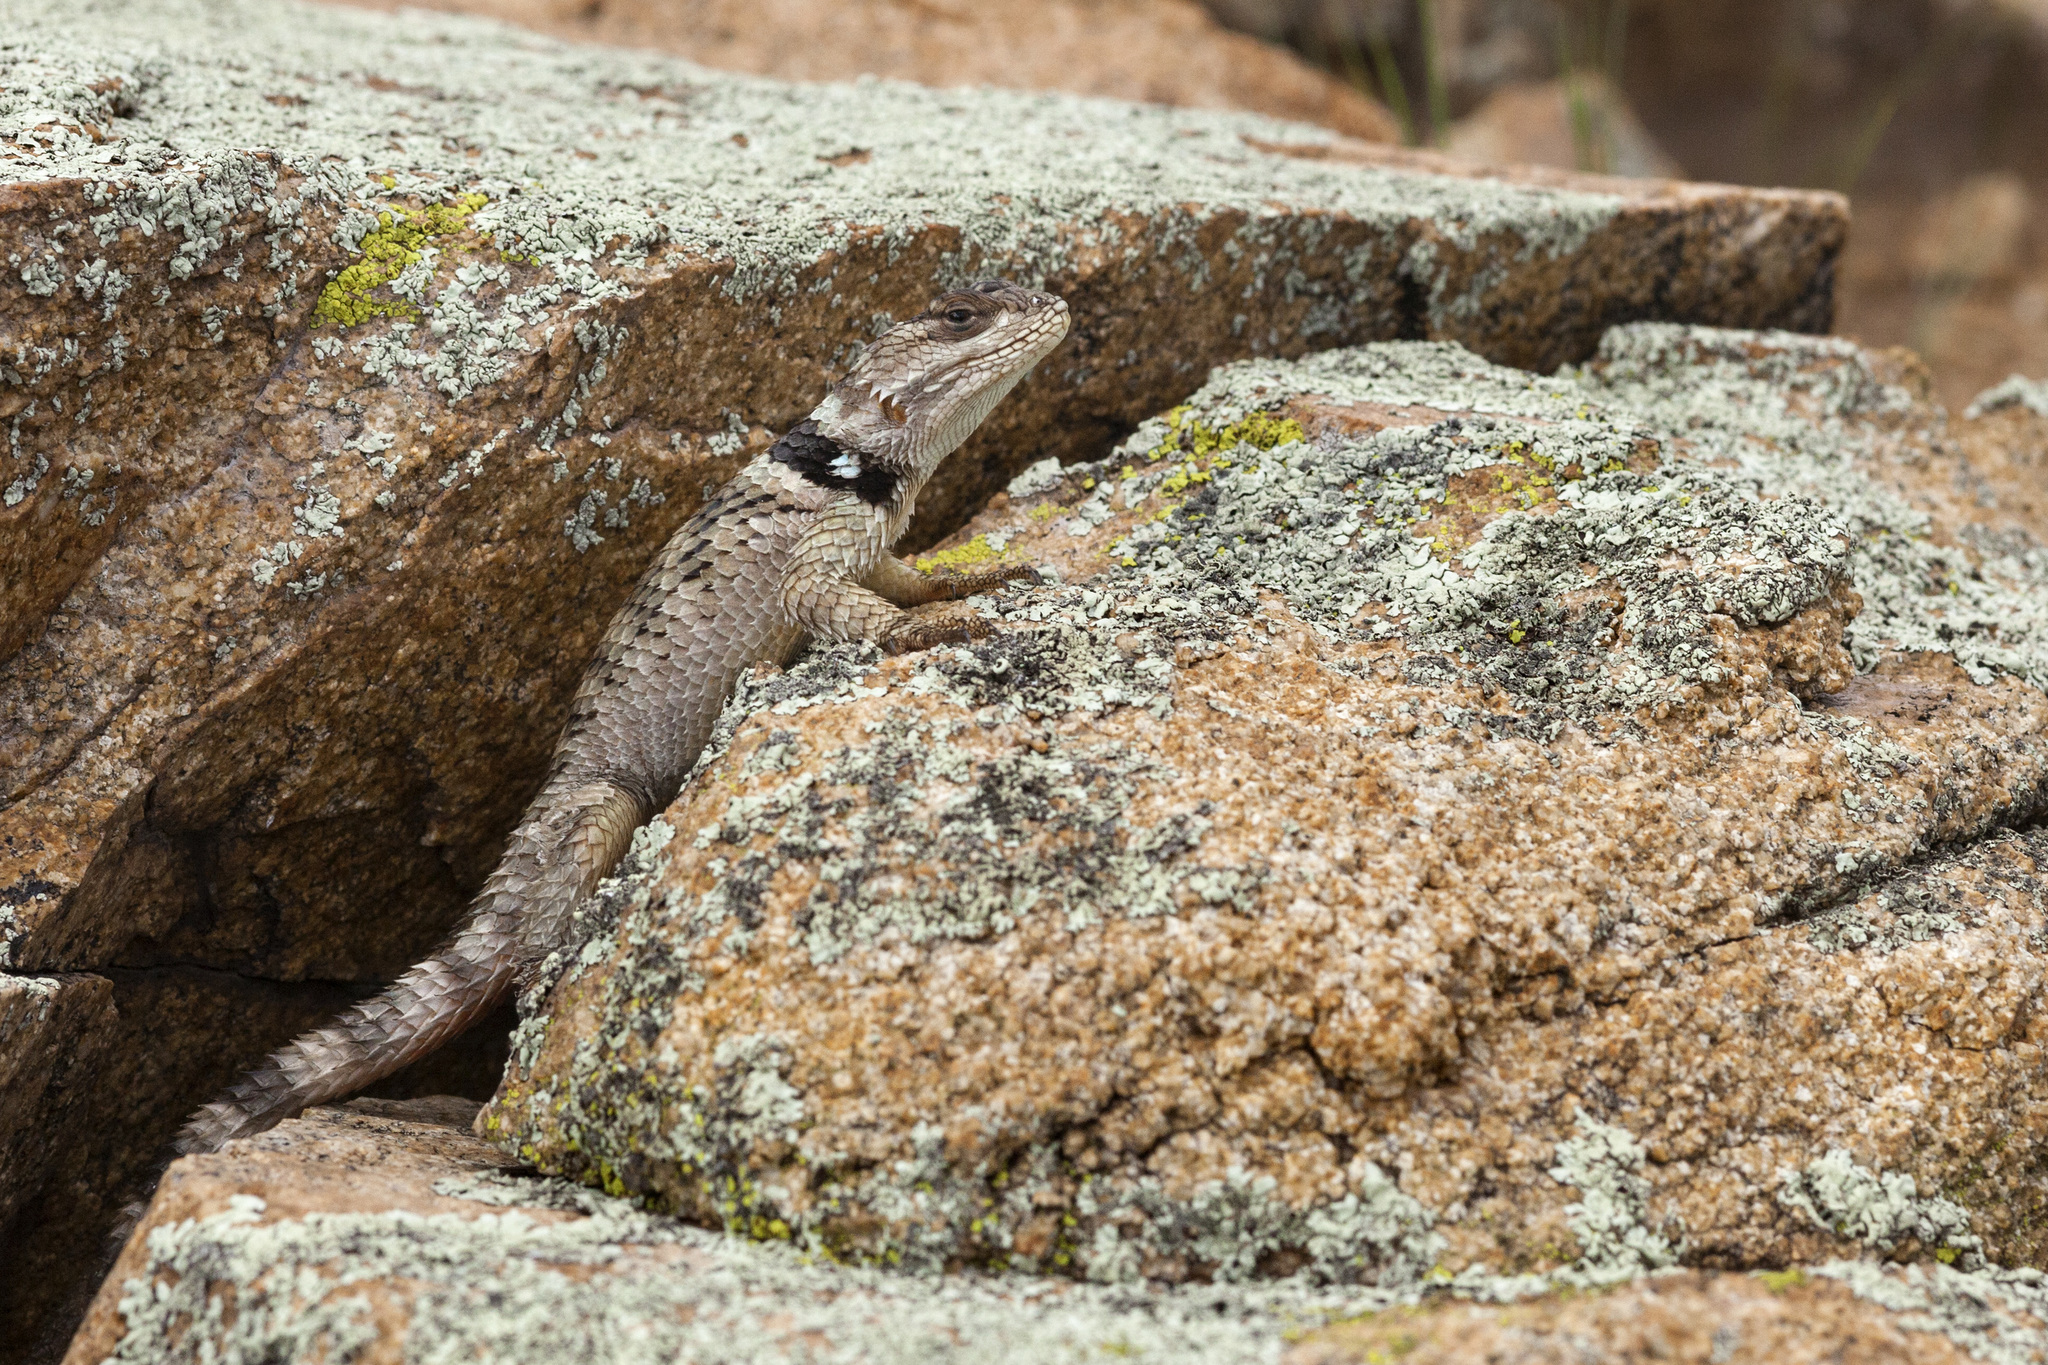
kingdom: Animalia
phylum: Chordata
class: Squamata
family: Phrynosomatidae
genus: Sceloporus
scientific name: Sceloporus poinsettii
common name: Crevice spiny lizard
